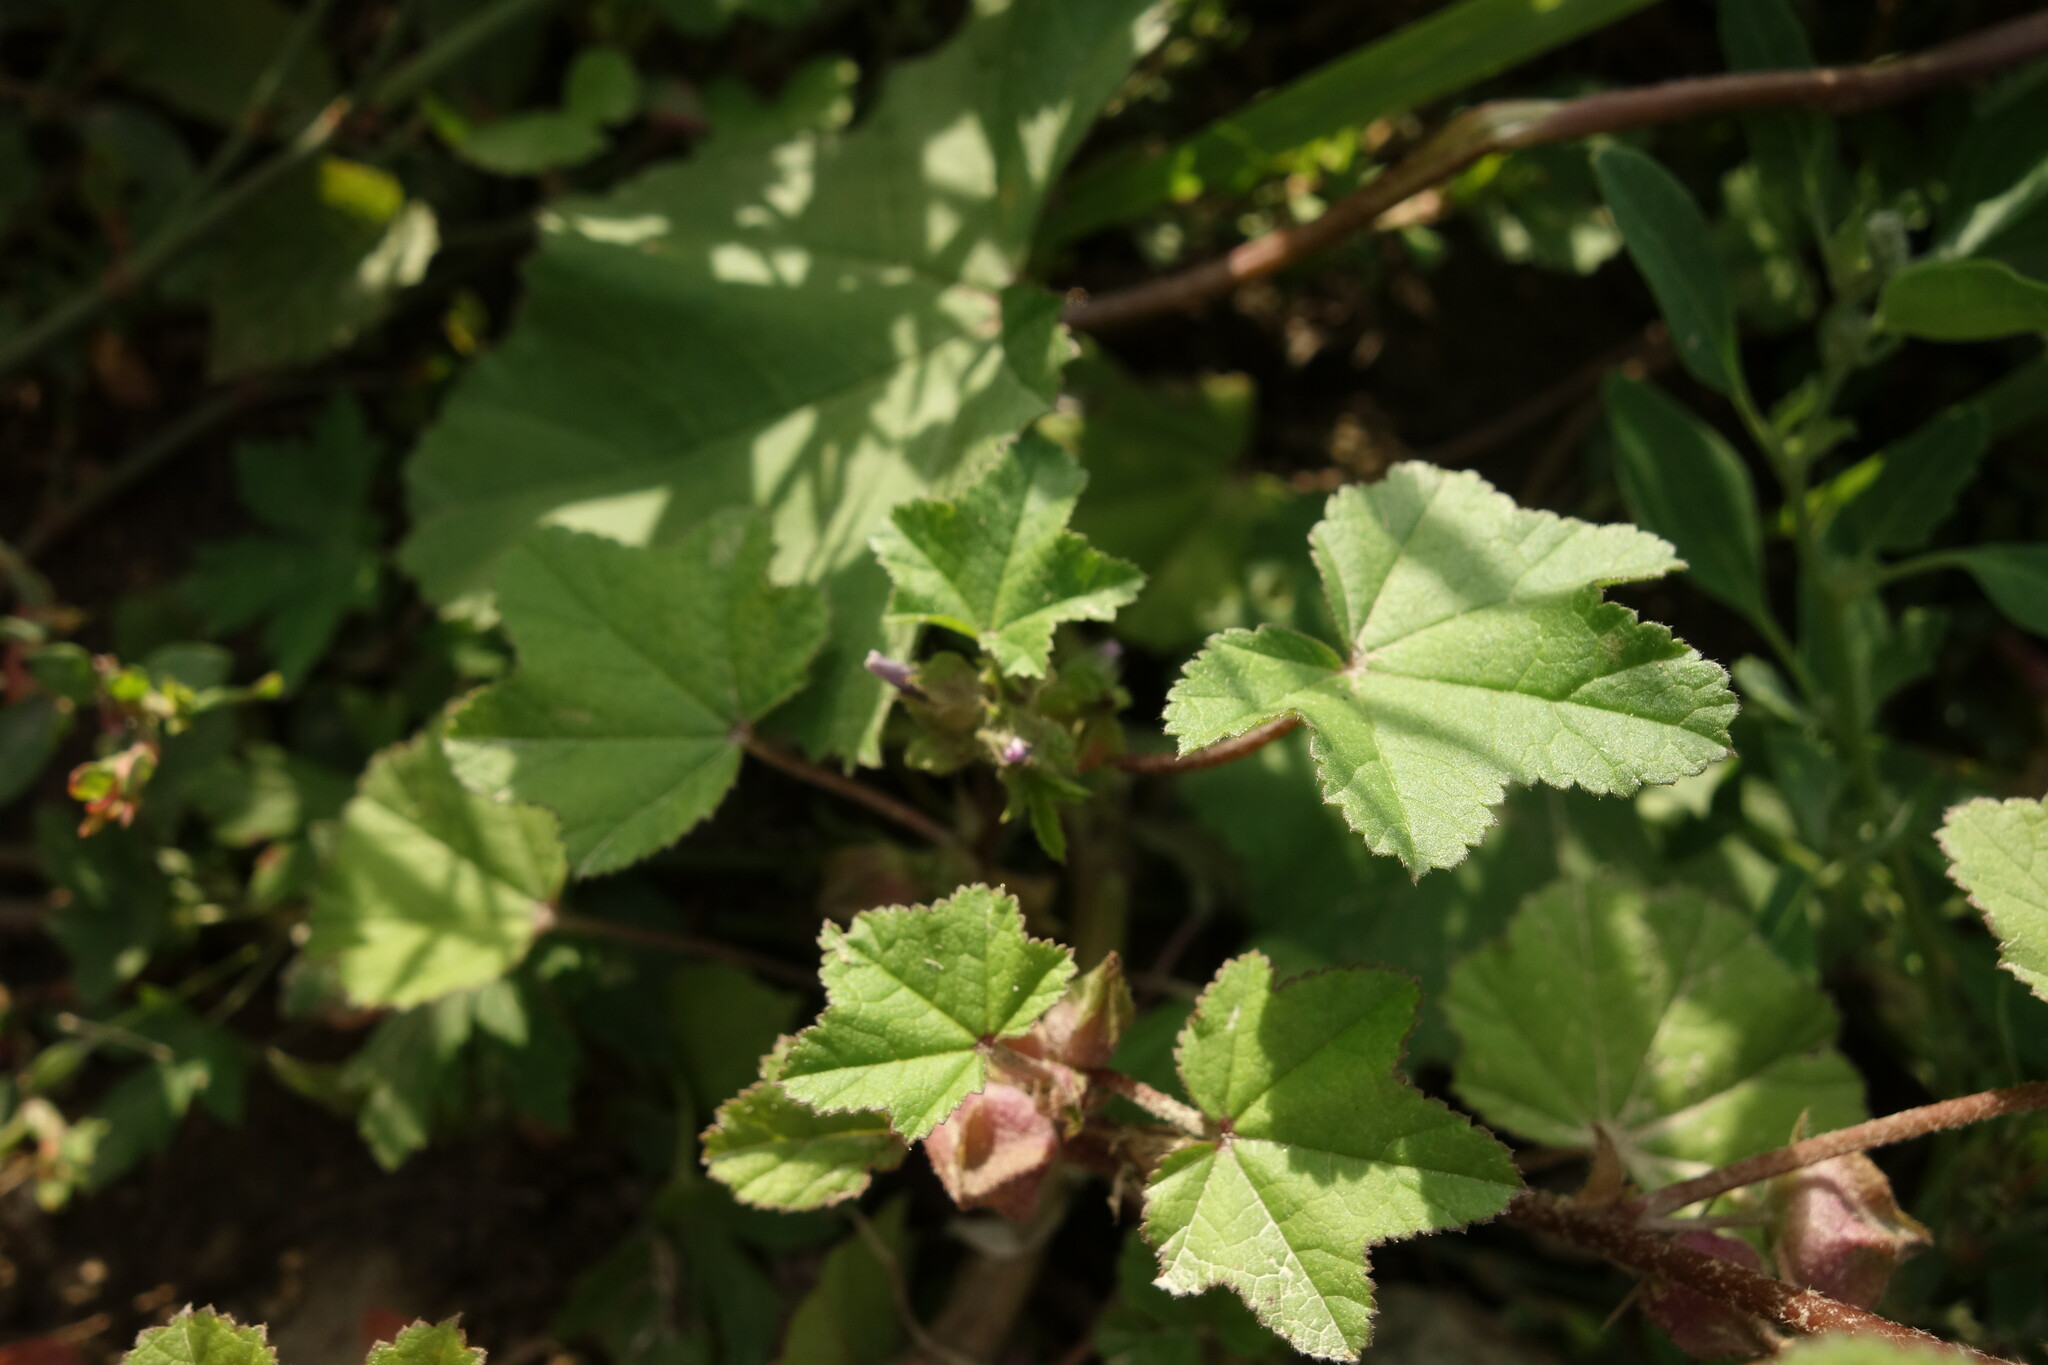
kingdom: Plantae
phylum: Tracheophyta
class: Magnoliopsida
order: Malvales
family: Malvaceae
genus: Malva
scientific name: Malva verticillata
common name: Chinese mallow
